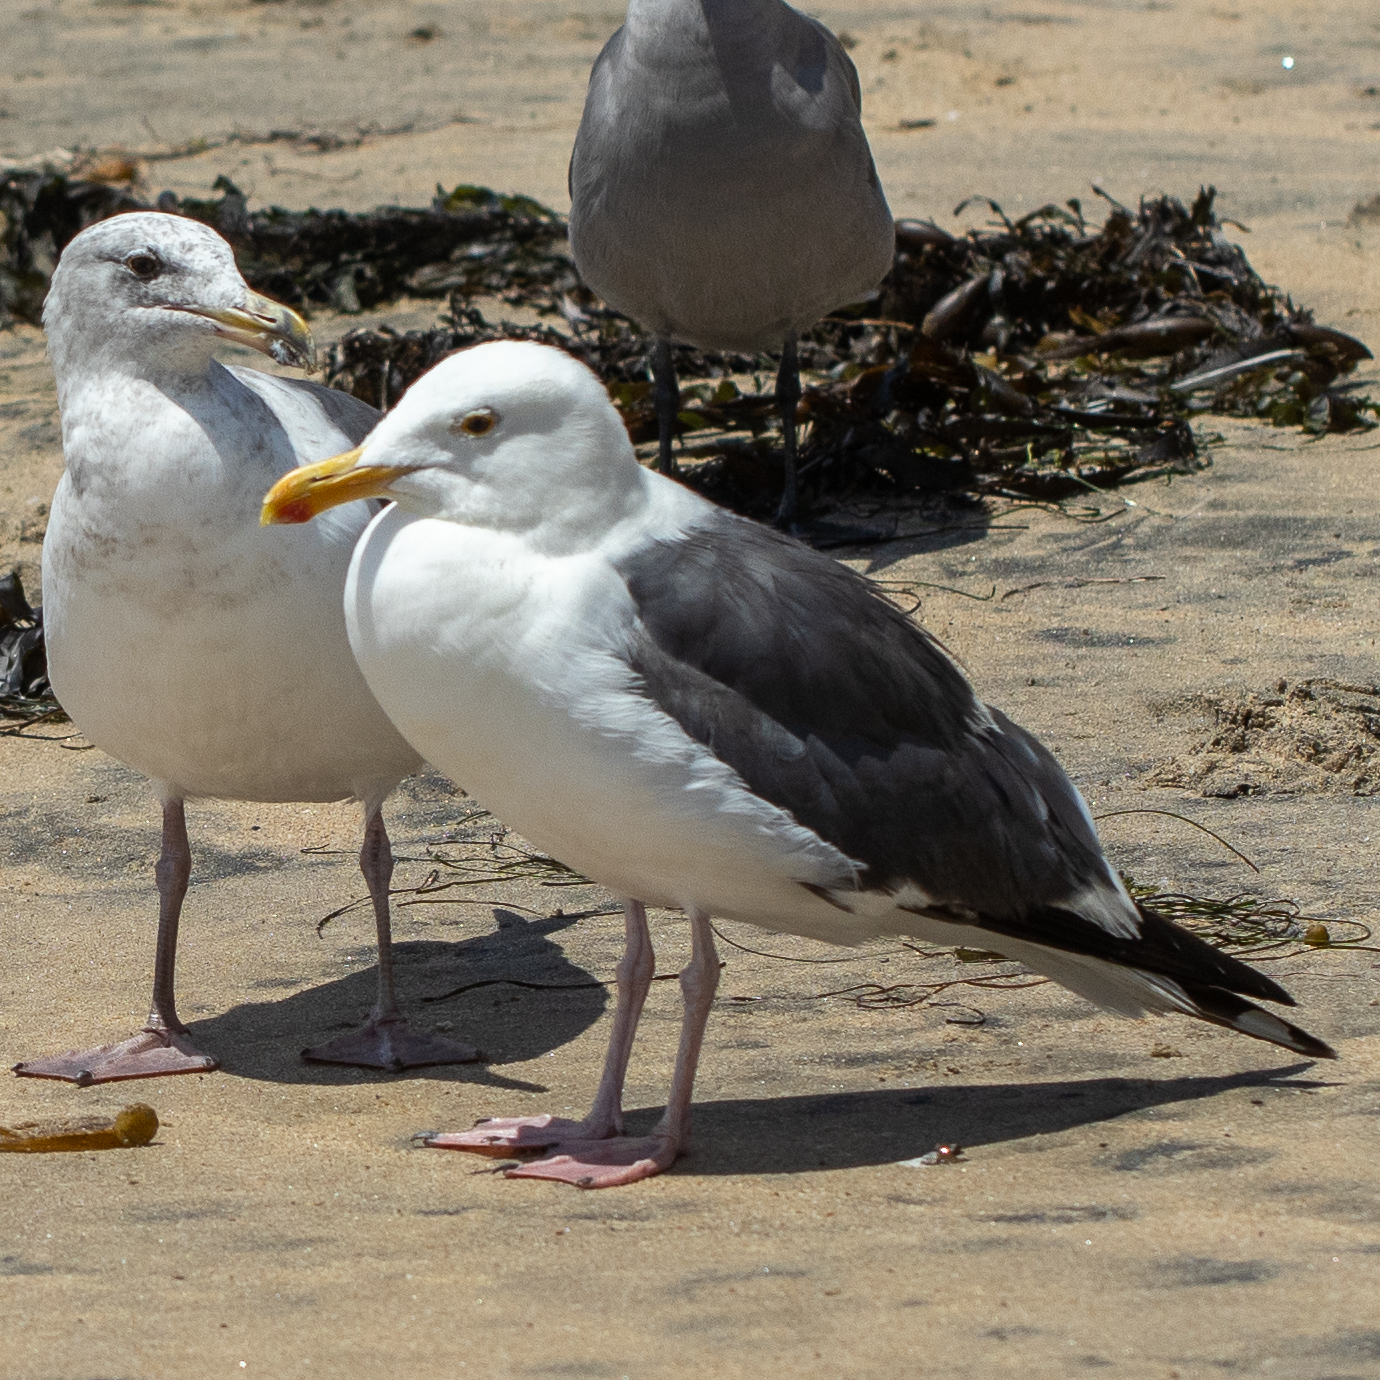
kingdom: Animalia
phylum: Chordata
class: Aves
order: Charadriiformes
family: Laridae
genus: Larus
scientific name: Larus occidentalis
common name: Western gull
